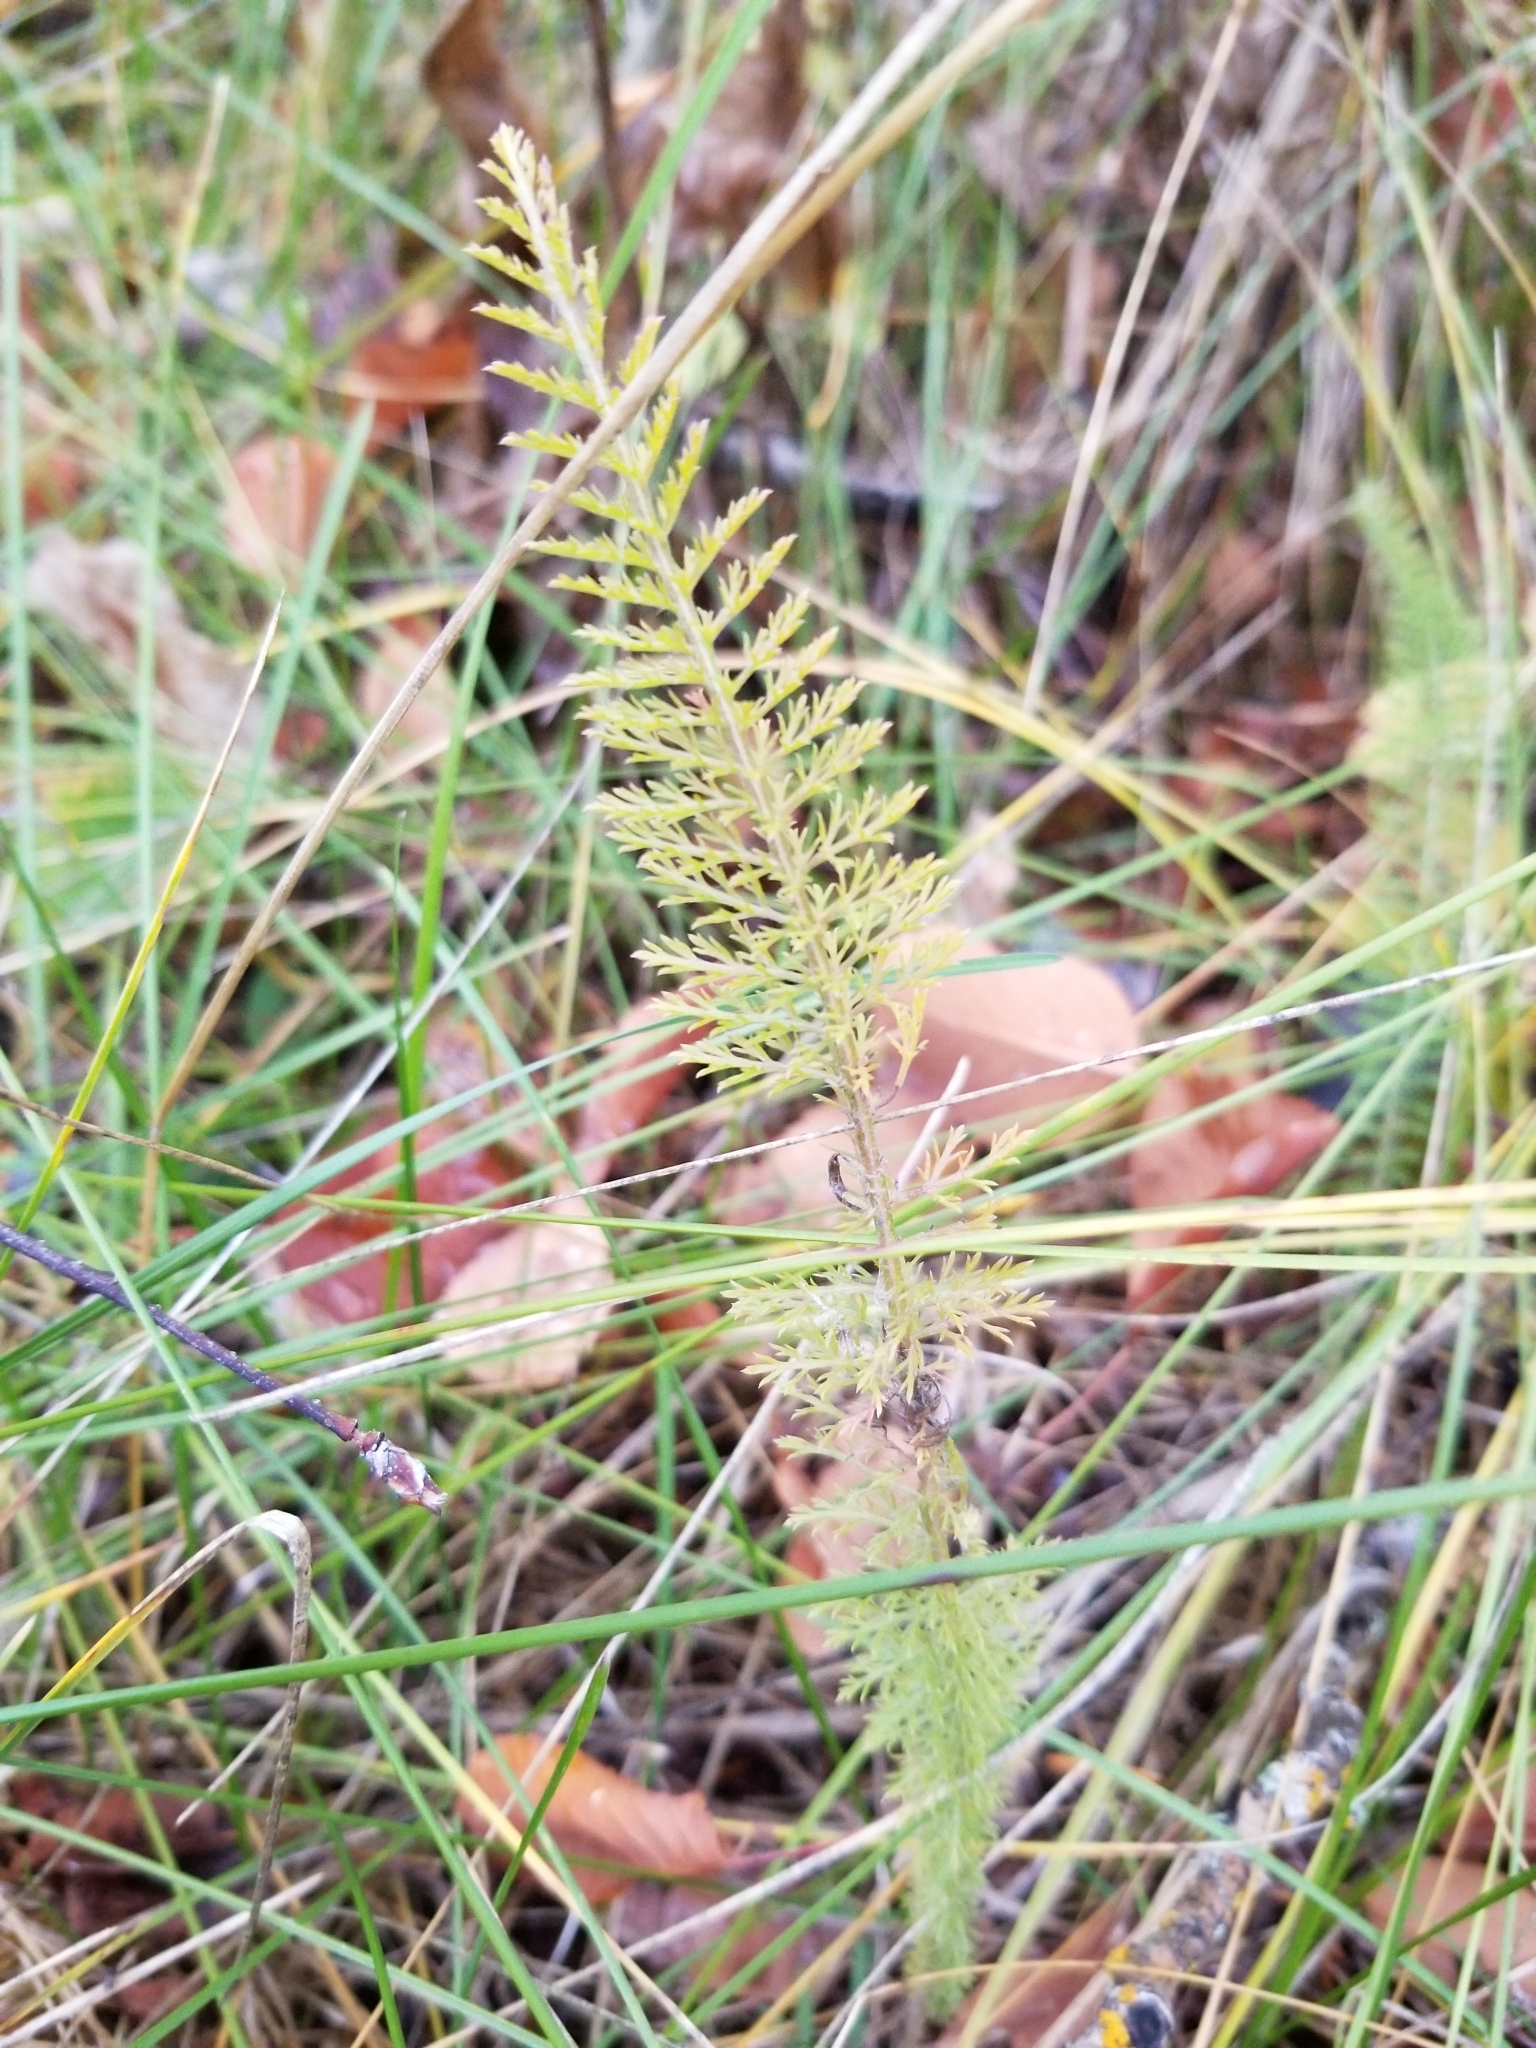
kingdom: Plantae
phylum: Tracheophyta
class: Magnoliopsida
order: Asterales
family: Asteraceae
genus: Achillea
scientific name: Achillea millefolium
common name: Yarrow
